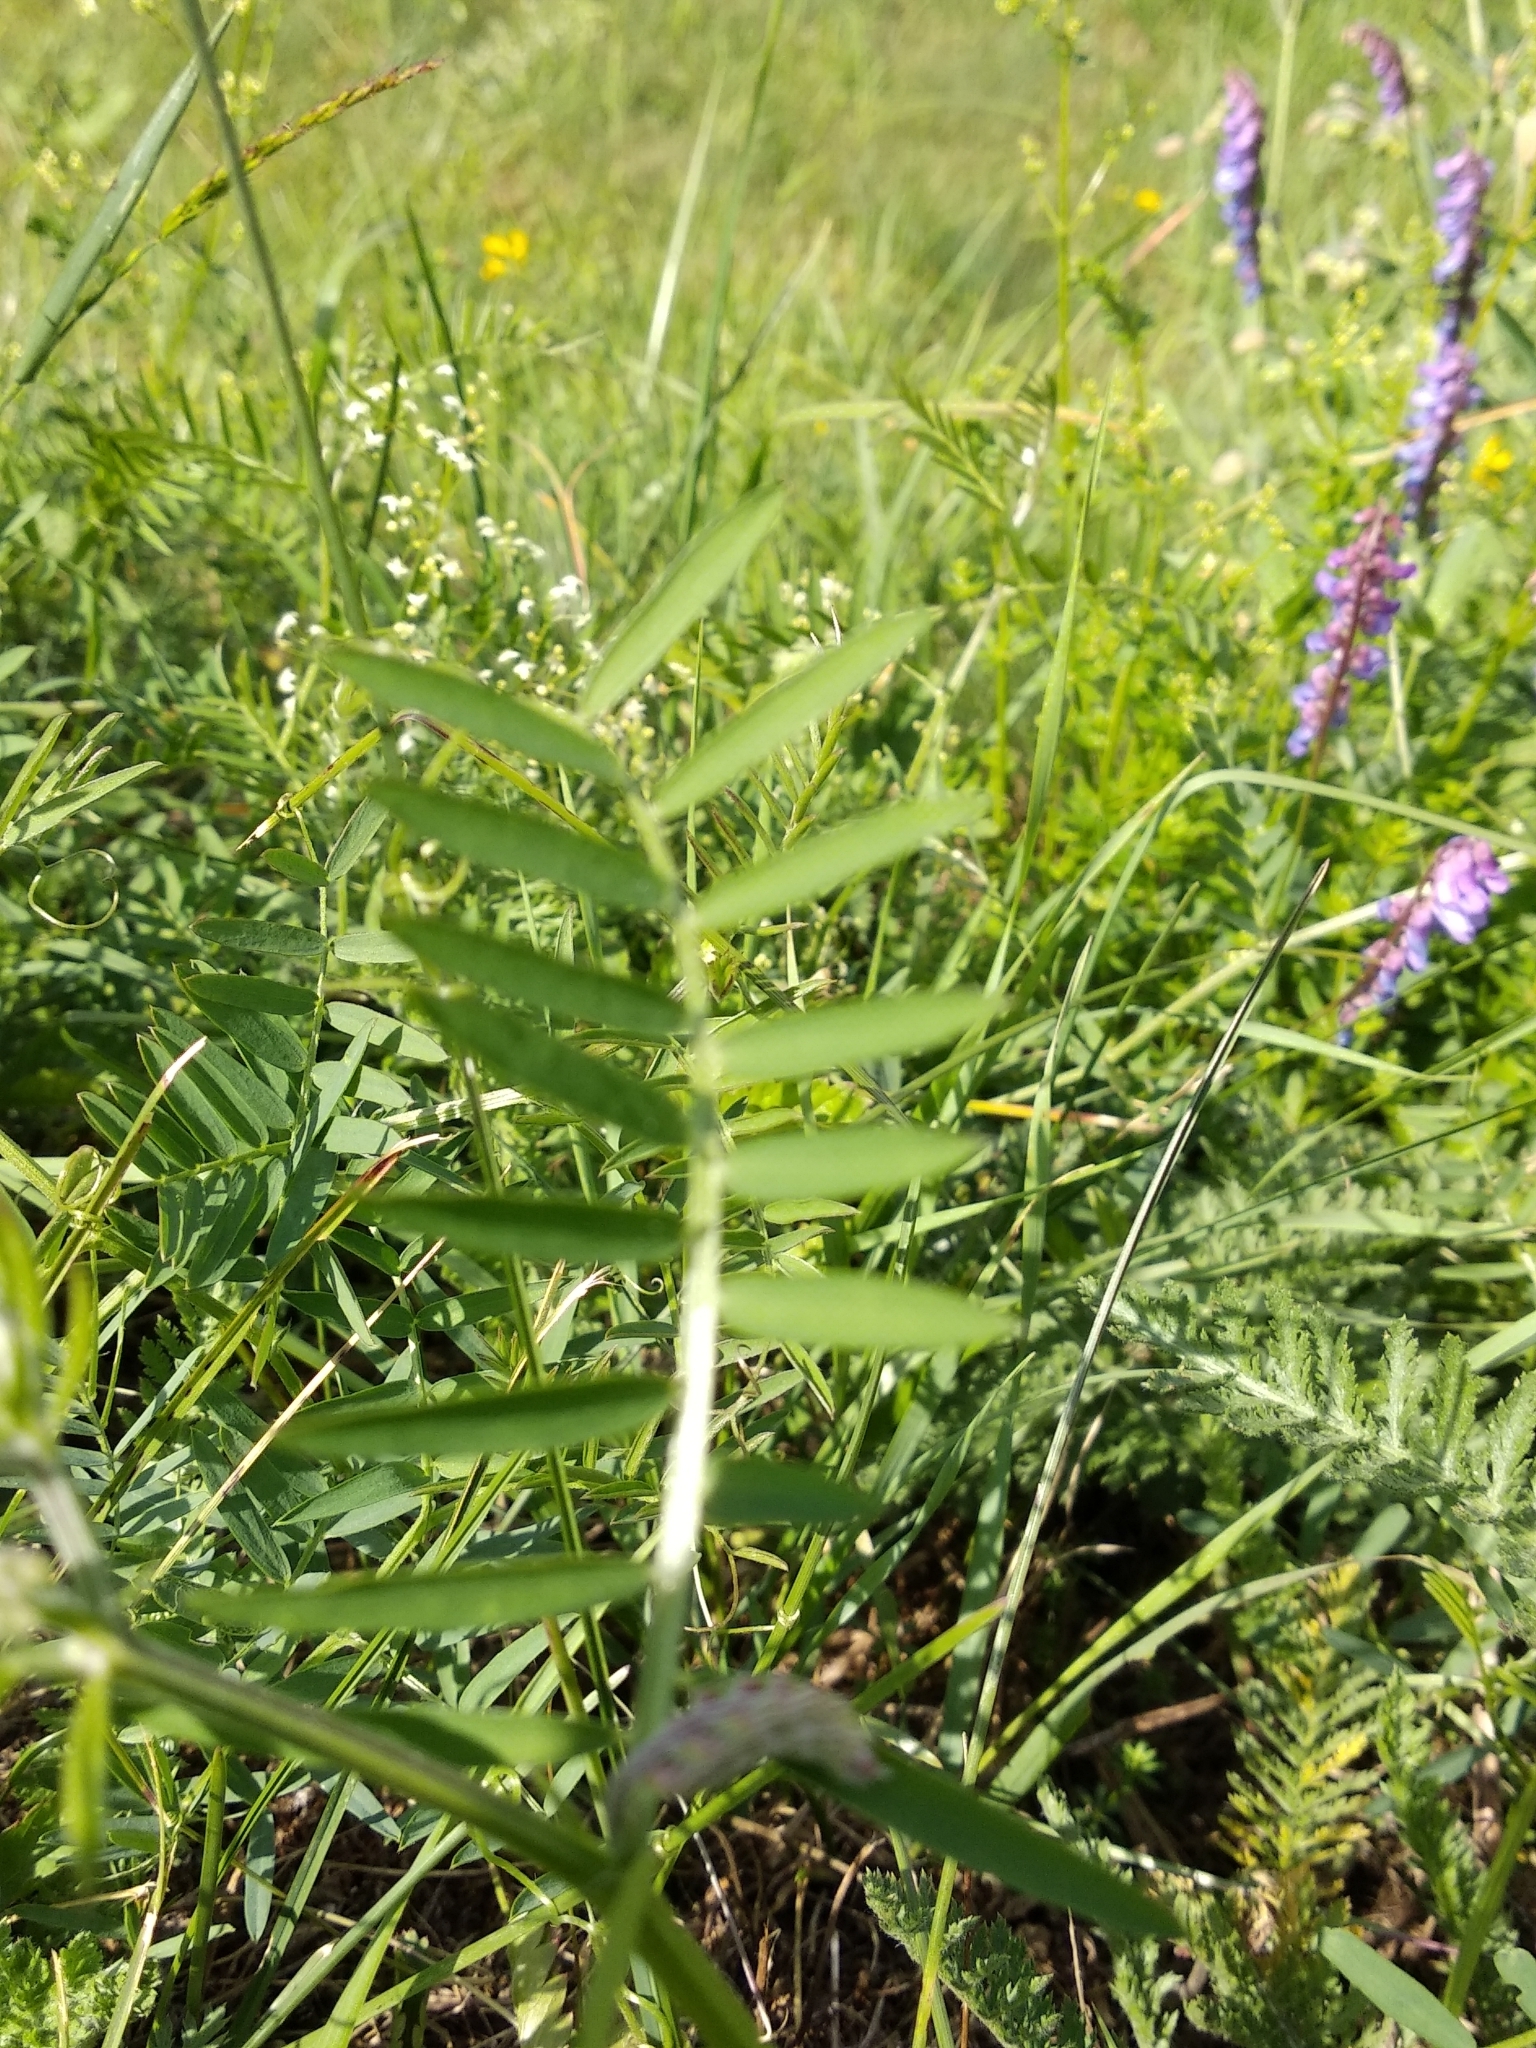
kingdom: Plantae
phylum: Tracheophyta
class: Magnoliopsida
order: Fabales
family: Fabaceae
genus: Vicia
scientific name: Vicia cracca
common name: Bird vetch
